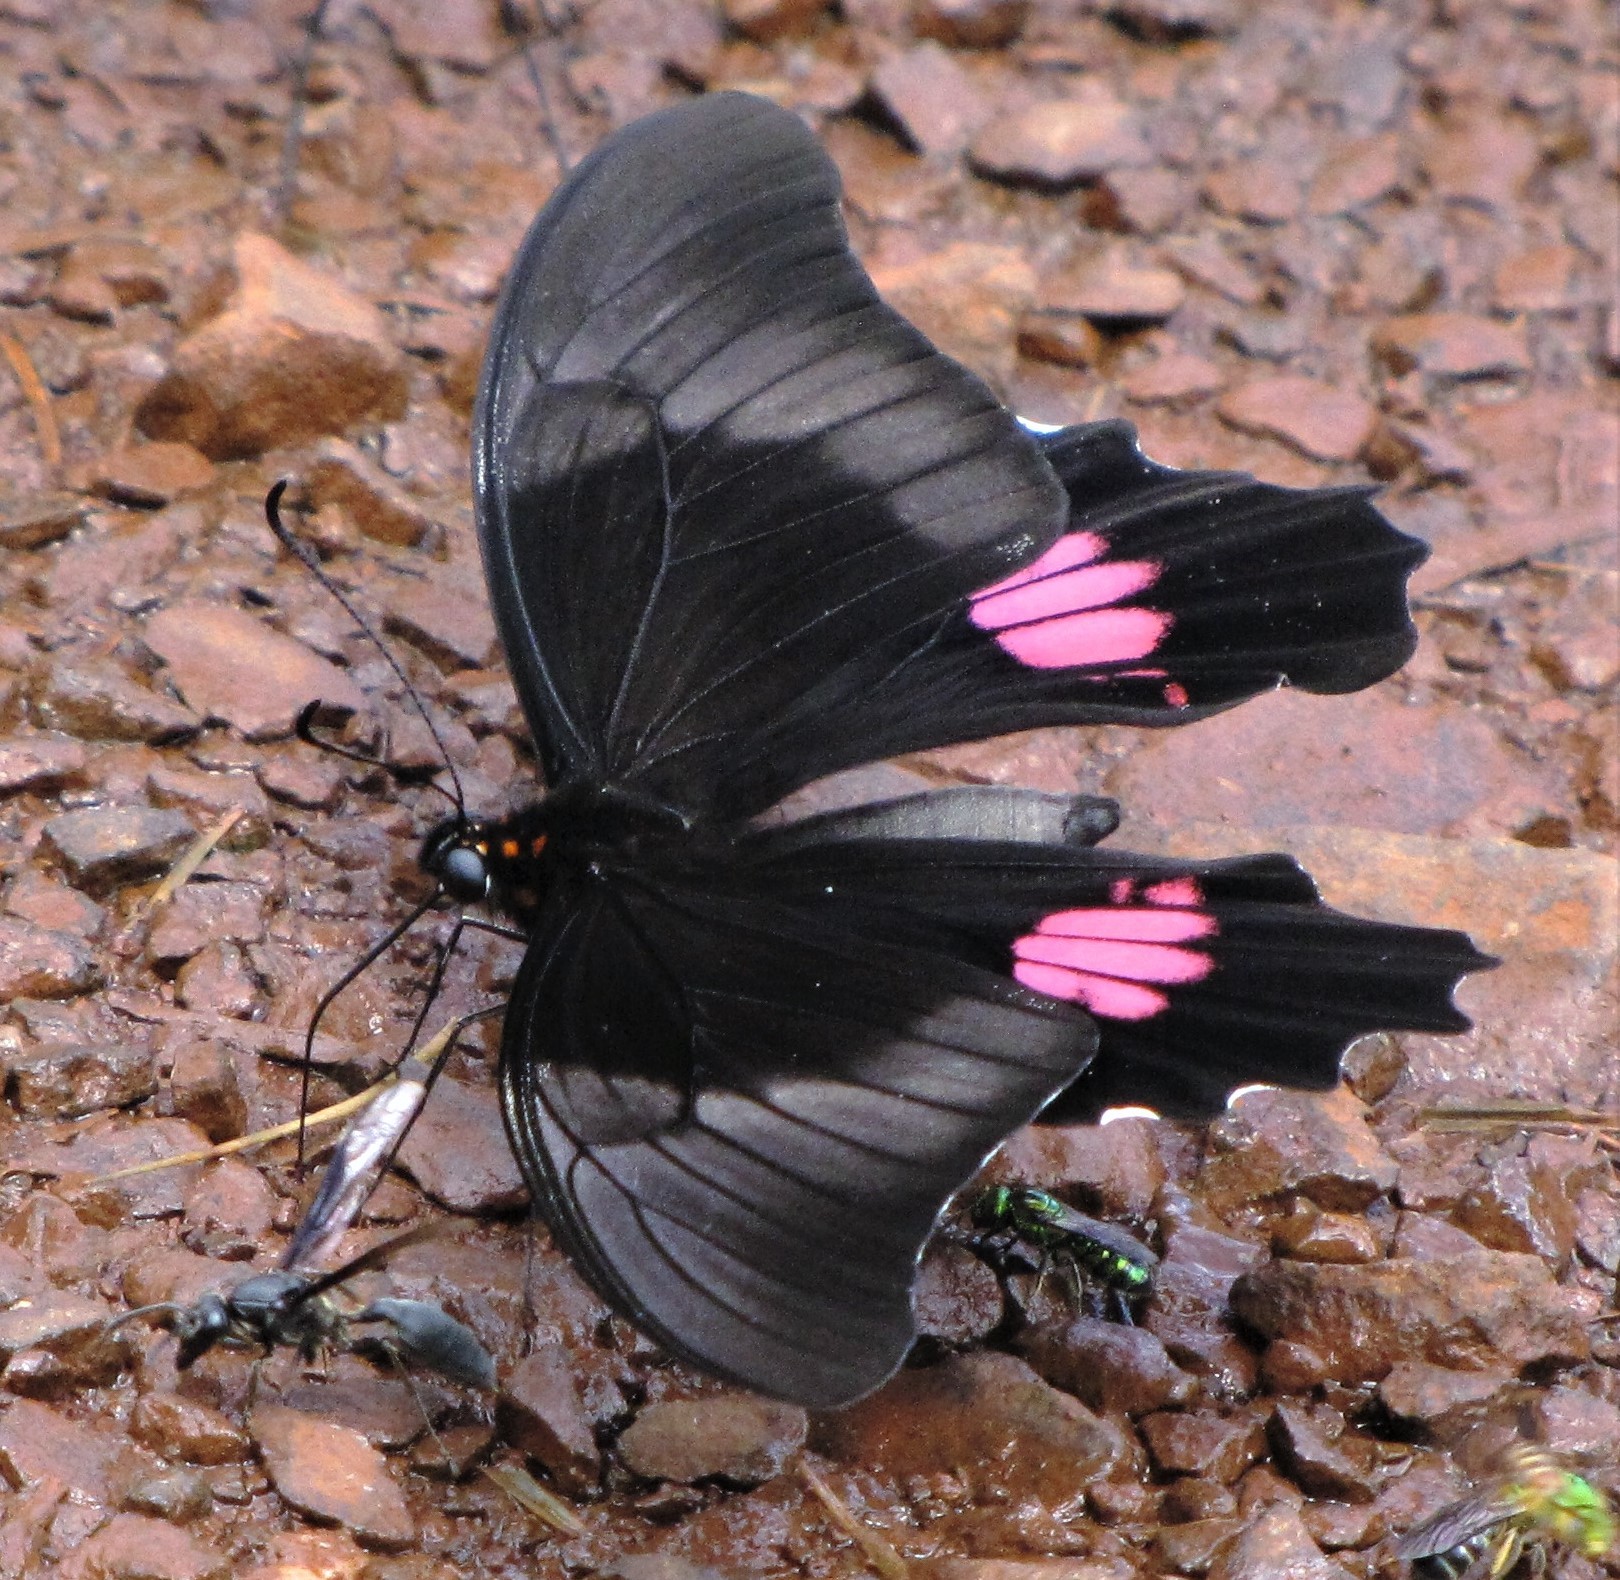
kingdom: Animalia
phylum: Arthropoda
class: Insecta
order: Lepidoptera
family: Papilionidae
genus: Papilio
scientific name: Papilio anchisiades
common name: Idaes swallowtail
